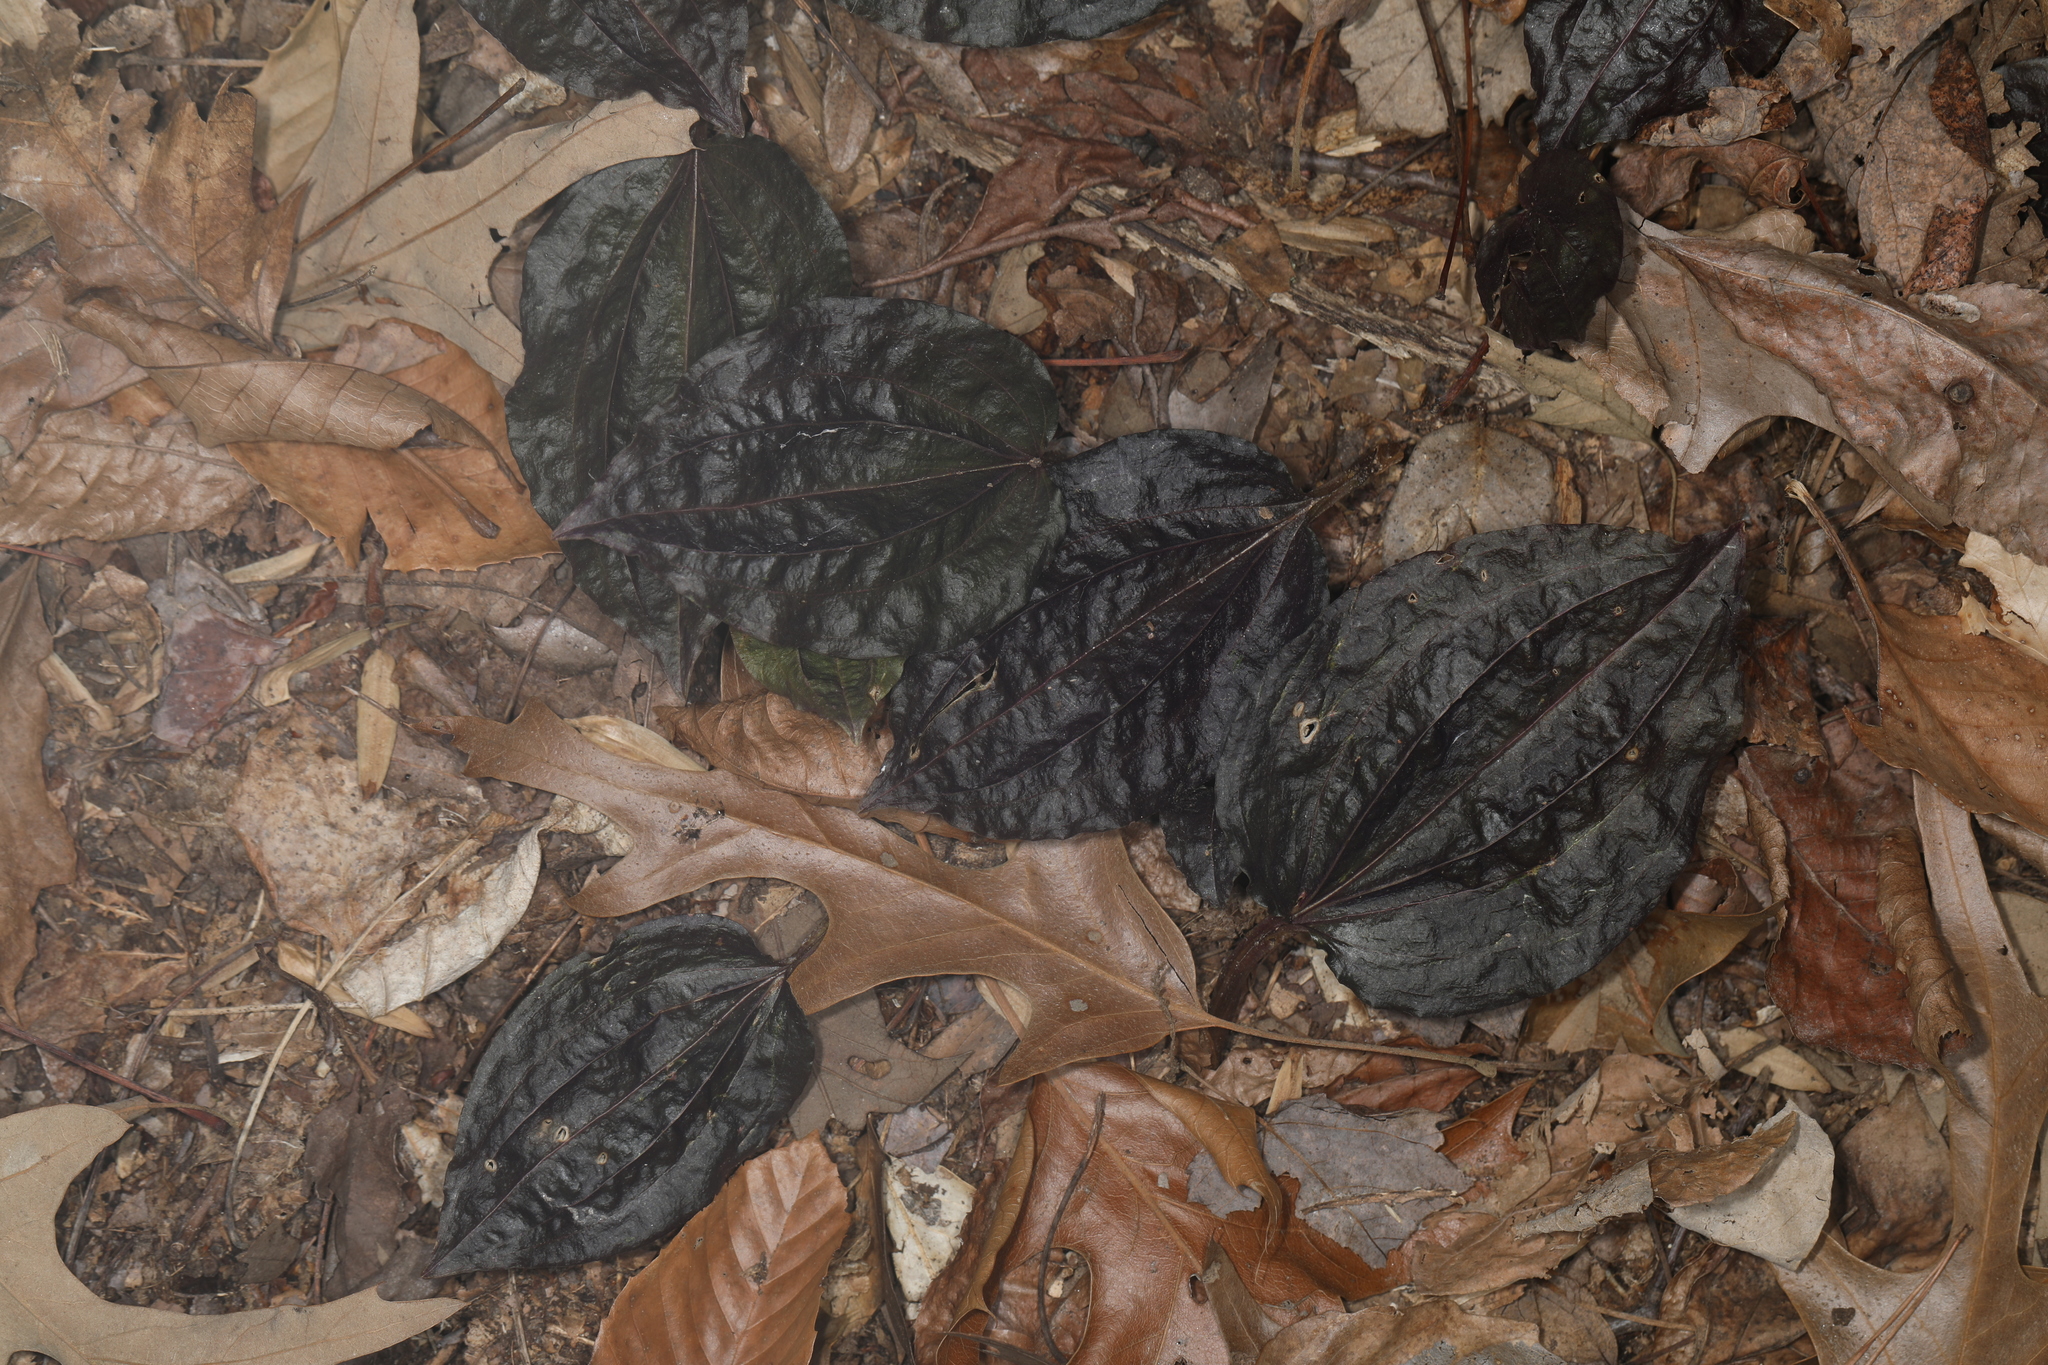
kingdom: Plantae
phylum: Tracheophyta
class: Liliopsida
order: Asparagales
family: Orchidaceae
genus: Tipularia
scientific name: Tipularia discolor
